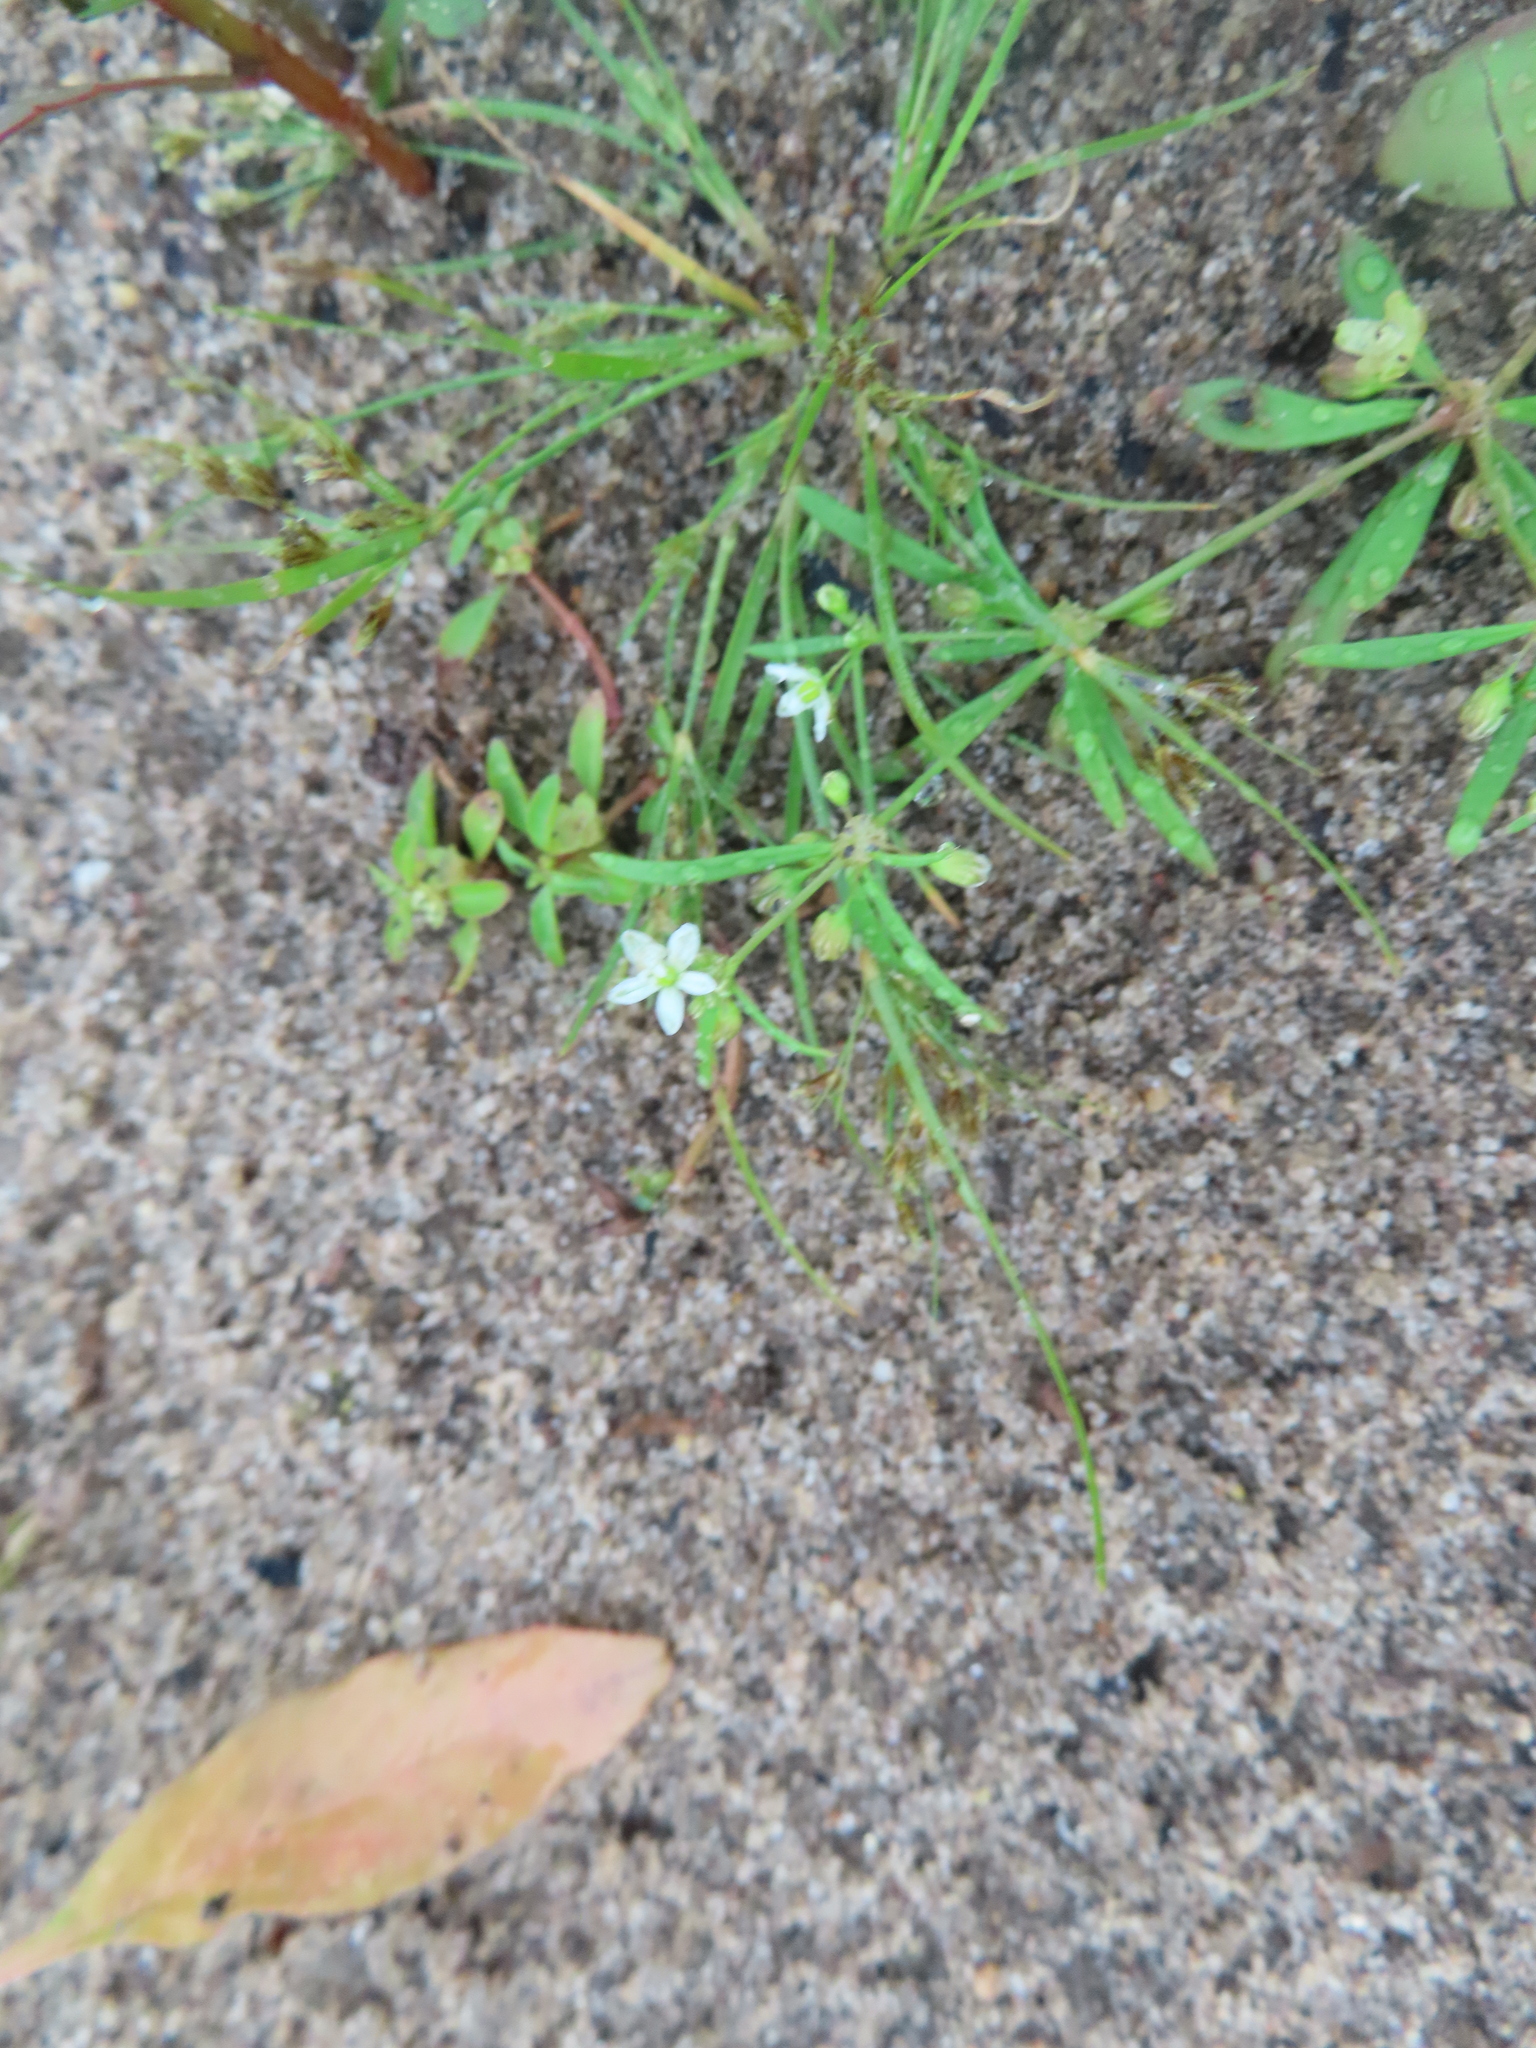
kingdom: Plantae
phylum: Tracheophyta
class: Magnoliopsida
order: Caryophyllales
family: Molluginaceae
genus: Mollugo
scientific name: Mollugo verticillata
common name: Green carpetweed
